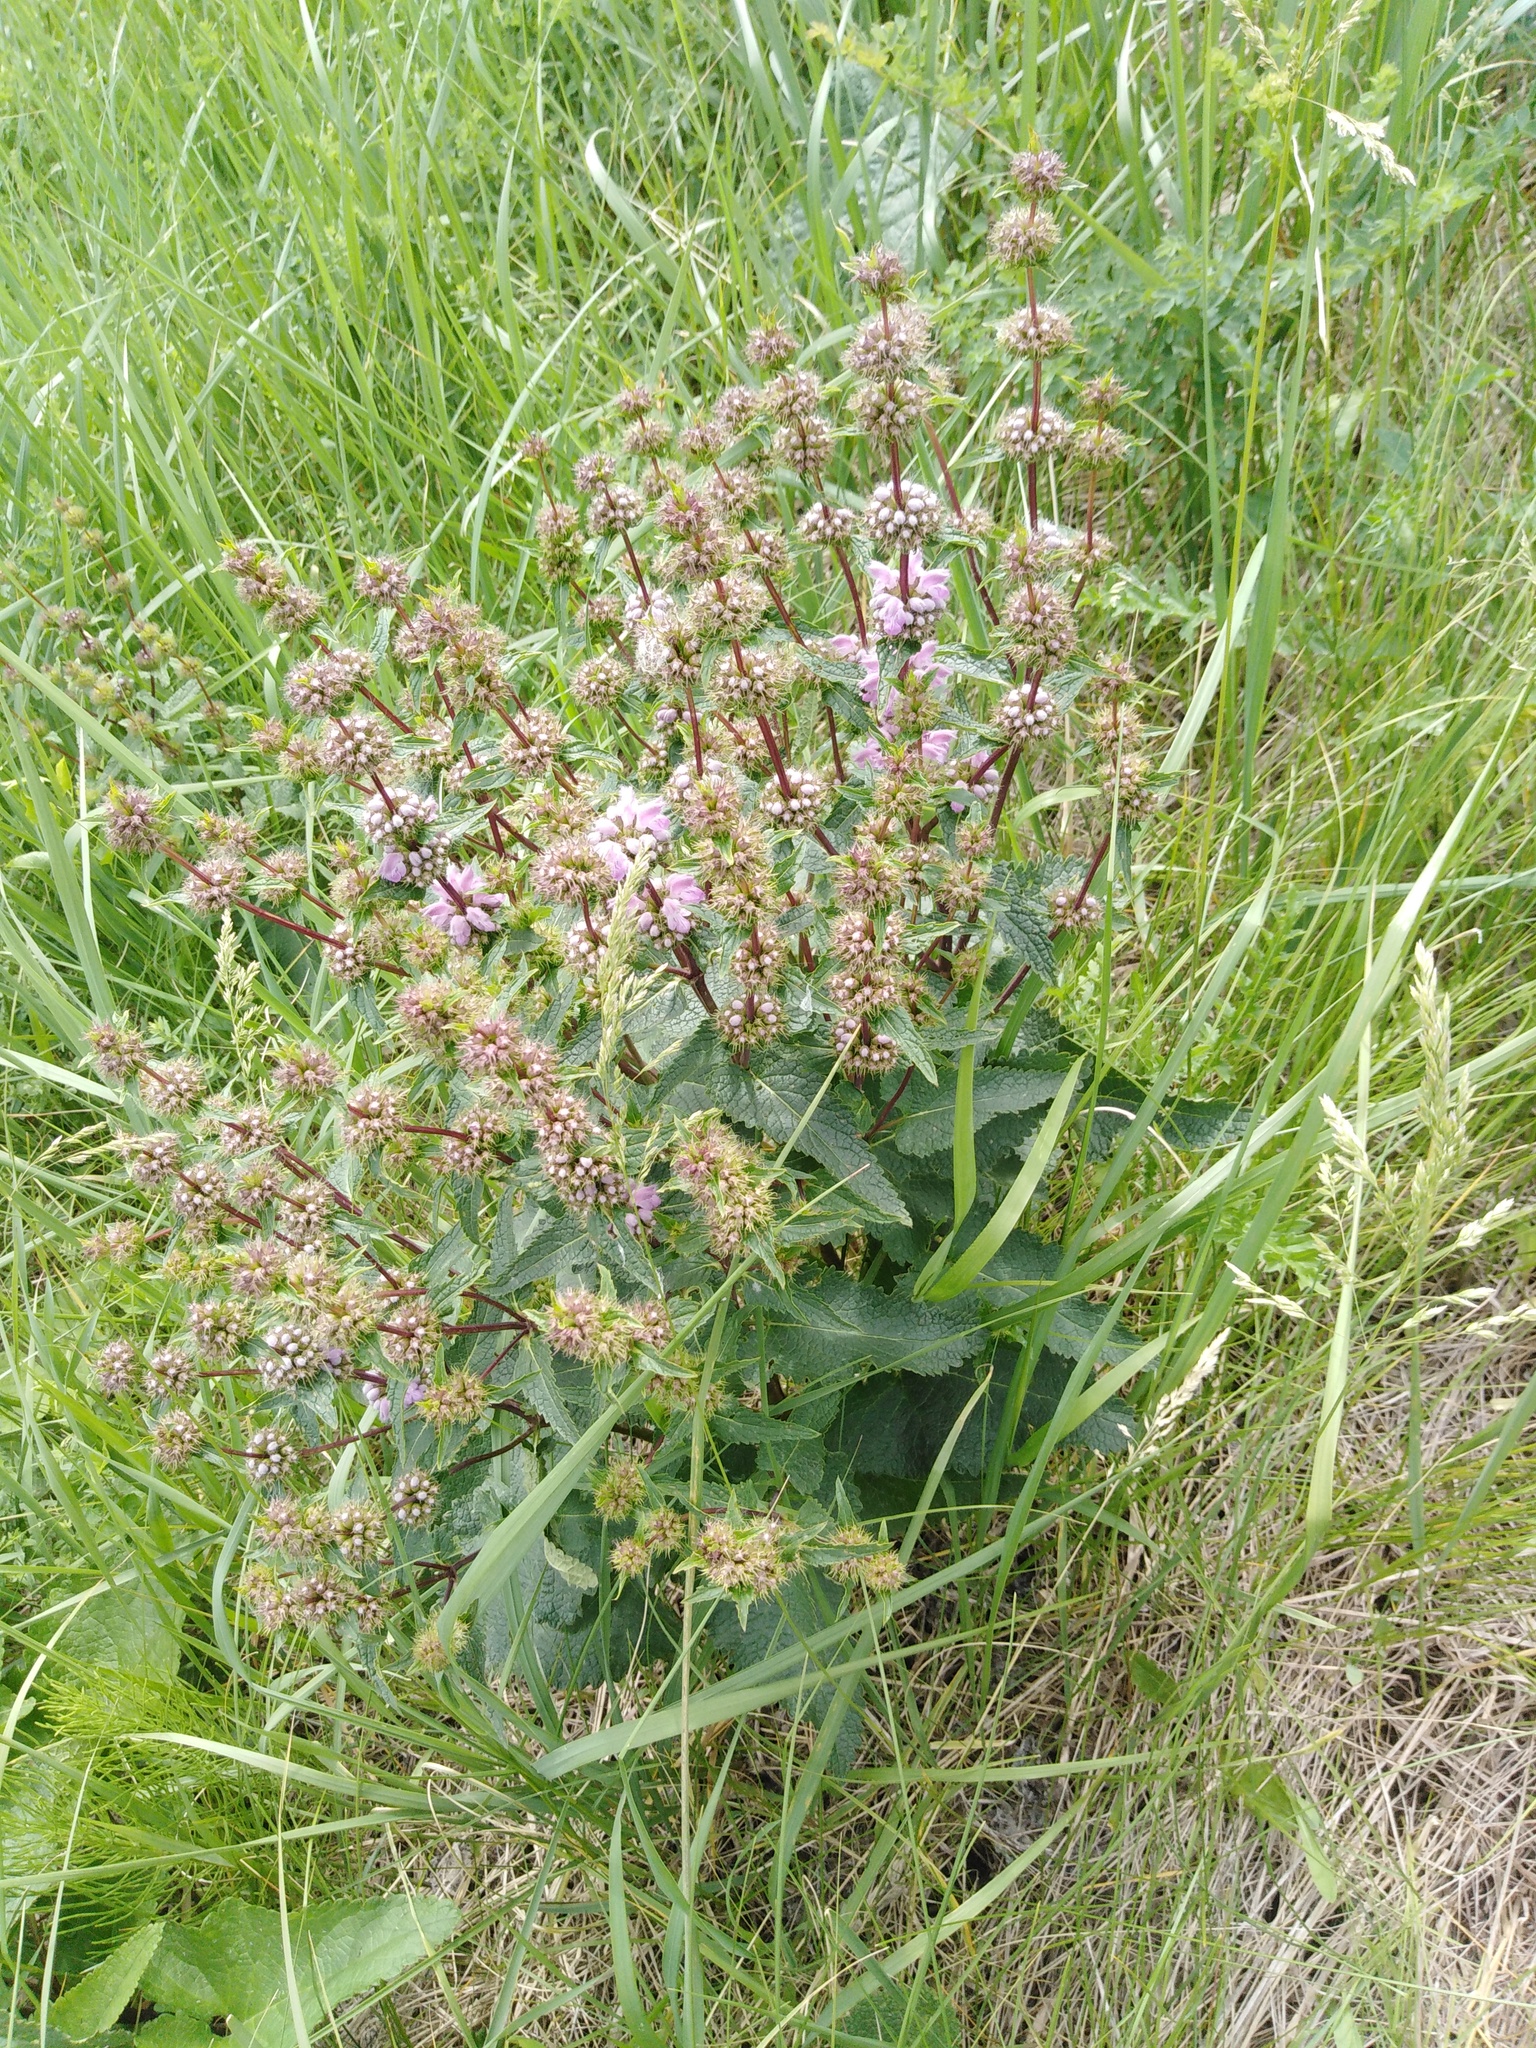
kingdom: Plantae
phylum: Tracheophyta
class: Magnoliopsida
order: Lamiales
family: Lamiaceae
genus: Phlomoides
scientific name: Phlomoides tuberosa
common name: Tuberous jerusalem sage
